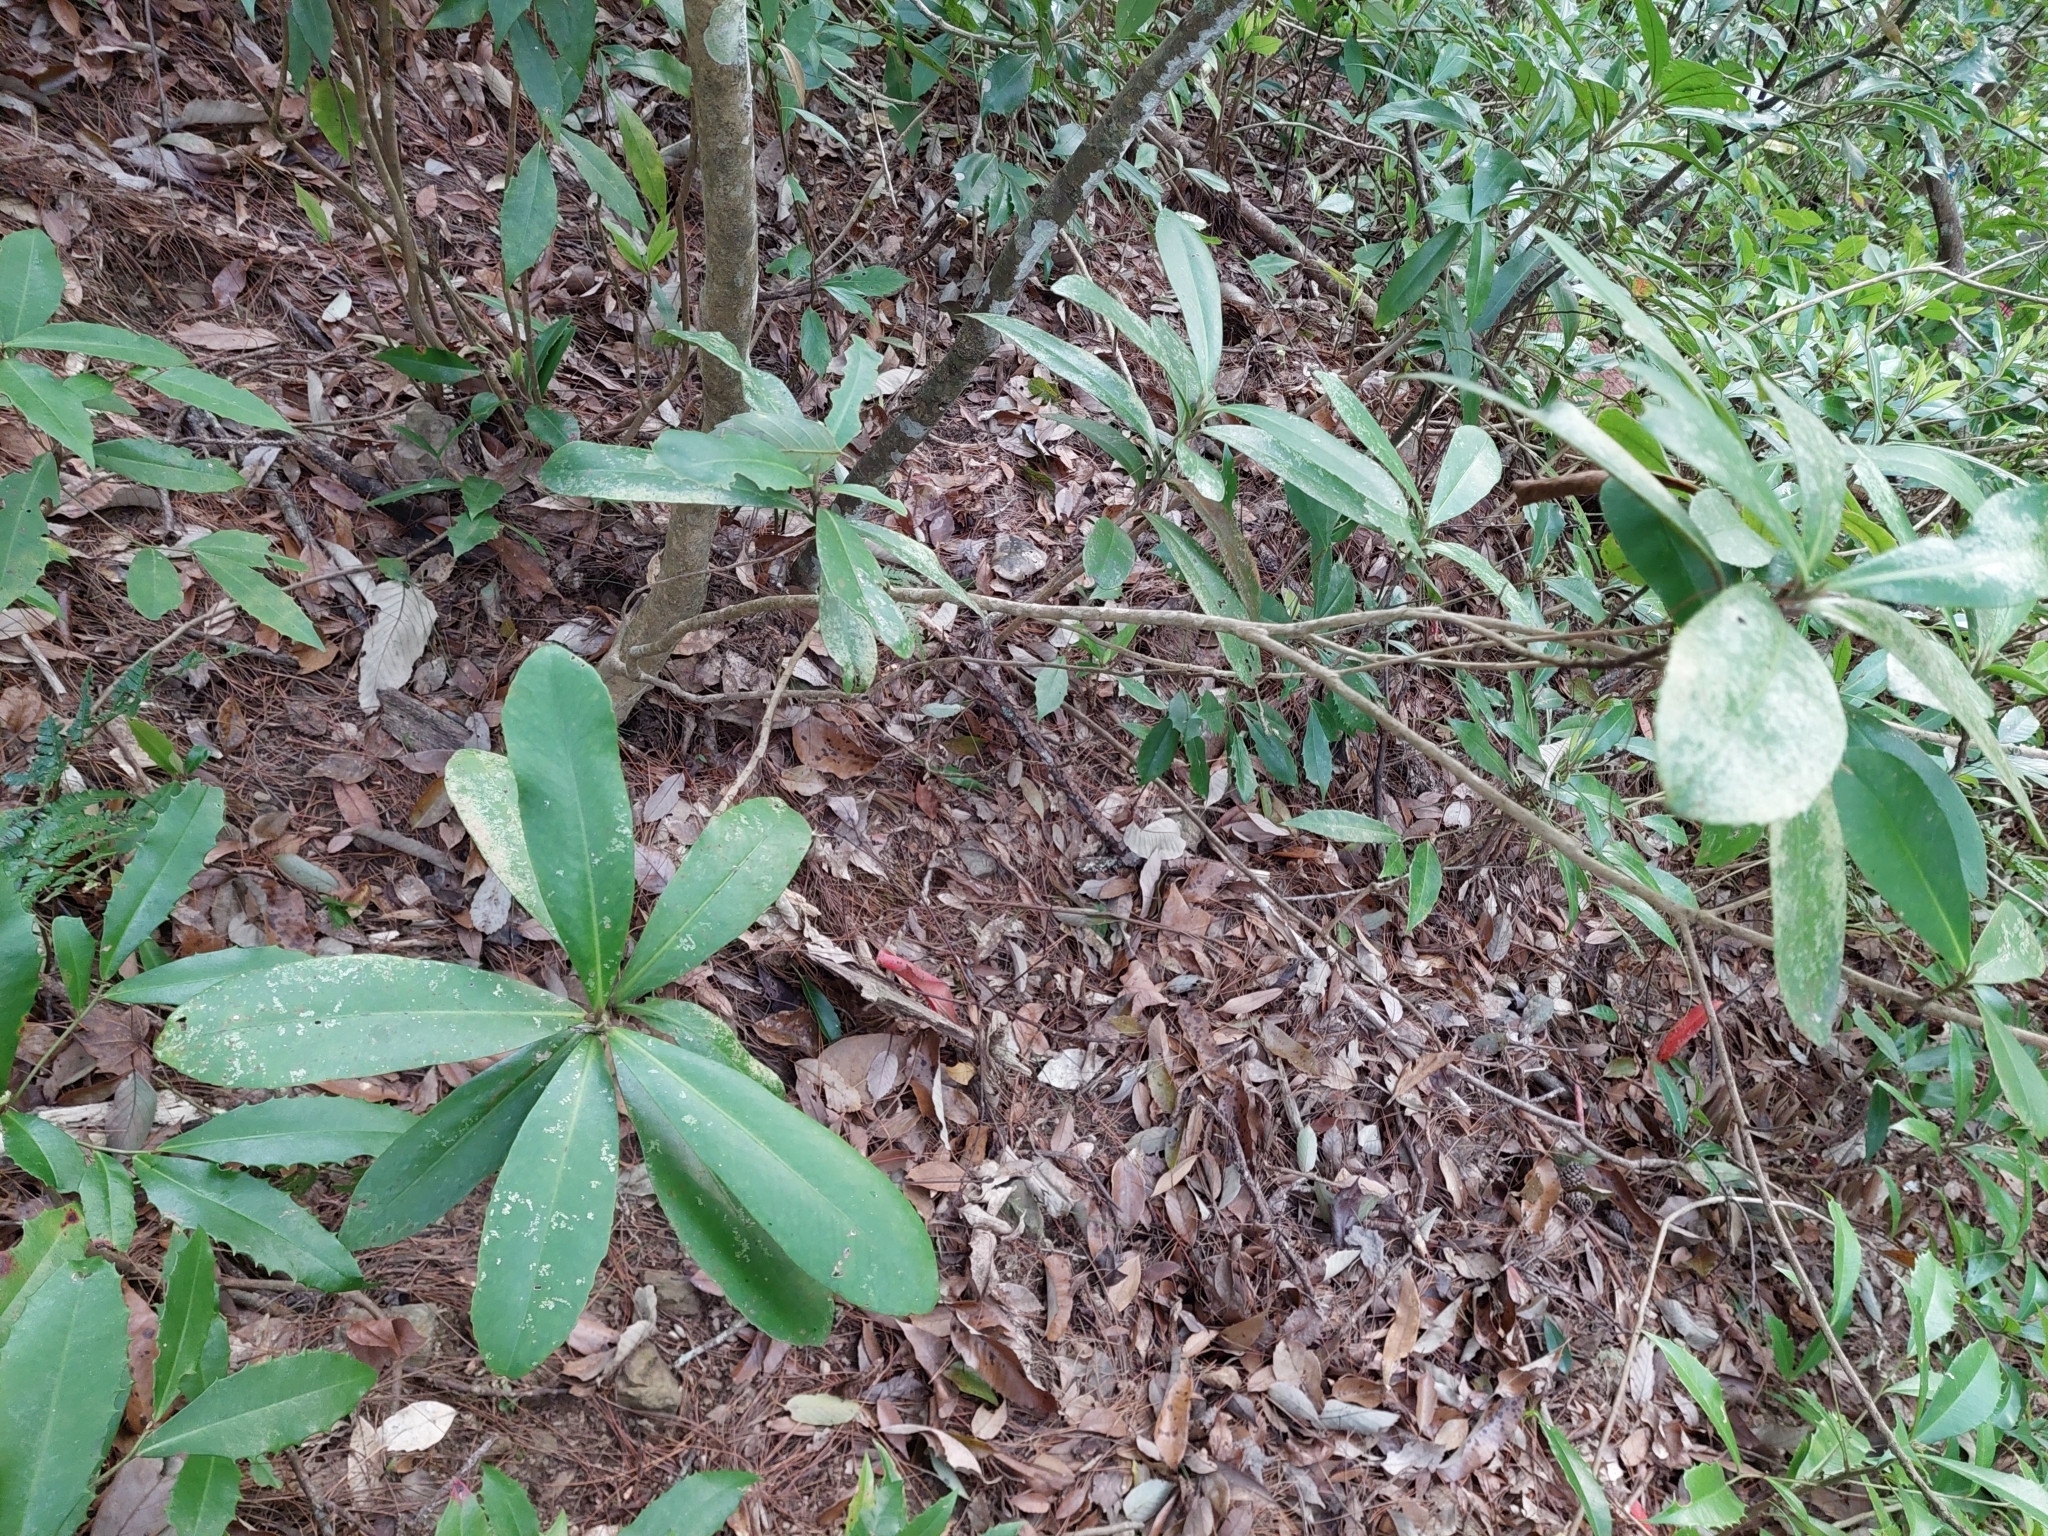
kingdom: Plantae
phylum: Tracheophyta
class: Magnoliopsida
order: Ericales
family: Theaceae
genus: Polyspora
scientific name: Polyspora axillaris
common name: Fried egg tree
